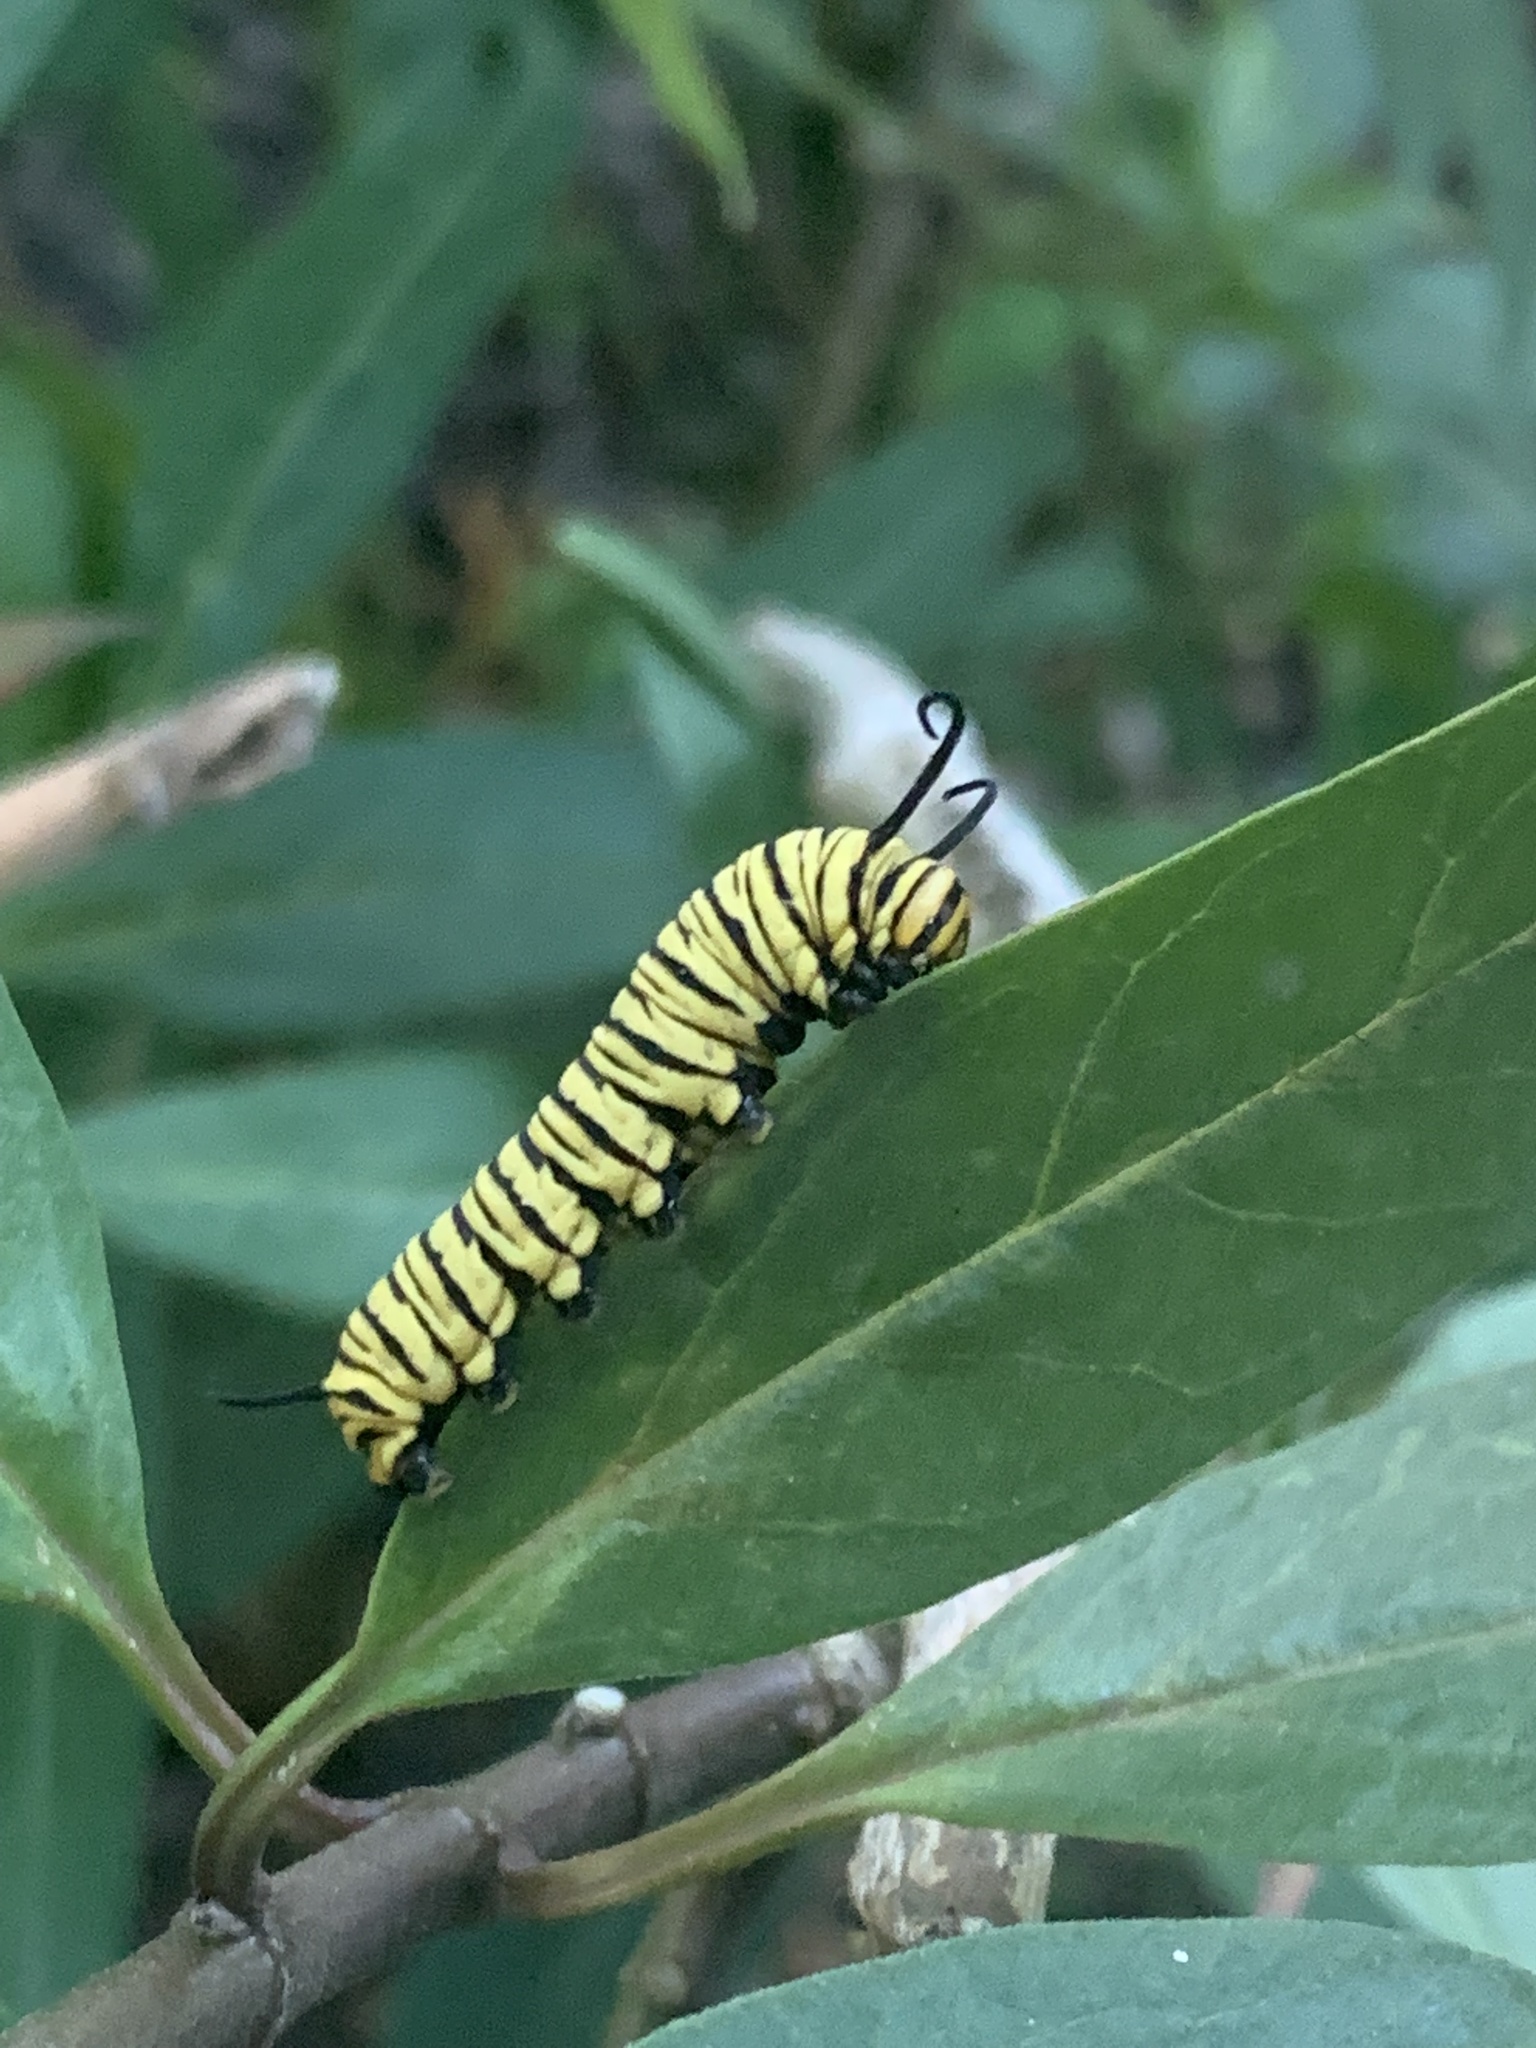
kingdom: Animalia
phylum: Arthropoda
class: Insecta
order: Lepidoptera
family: Nymphalidae
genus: Danaus
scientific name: Danaus erippus
